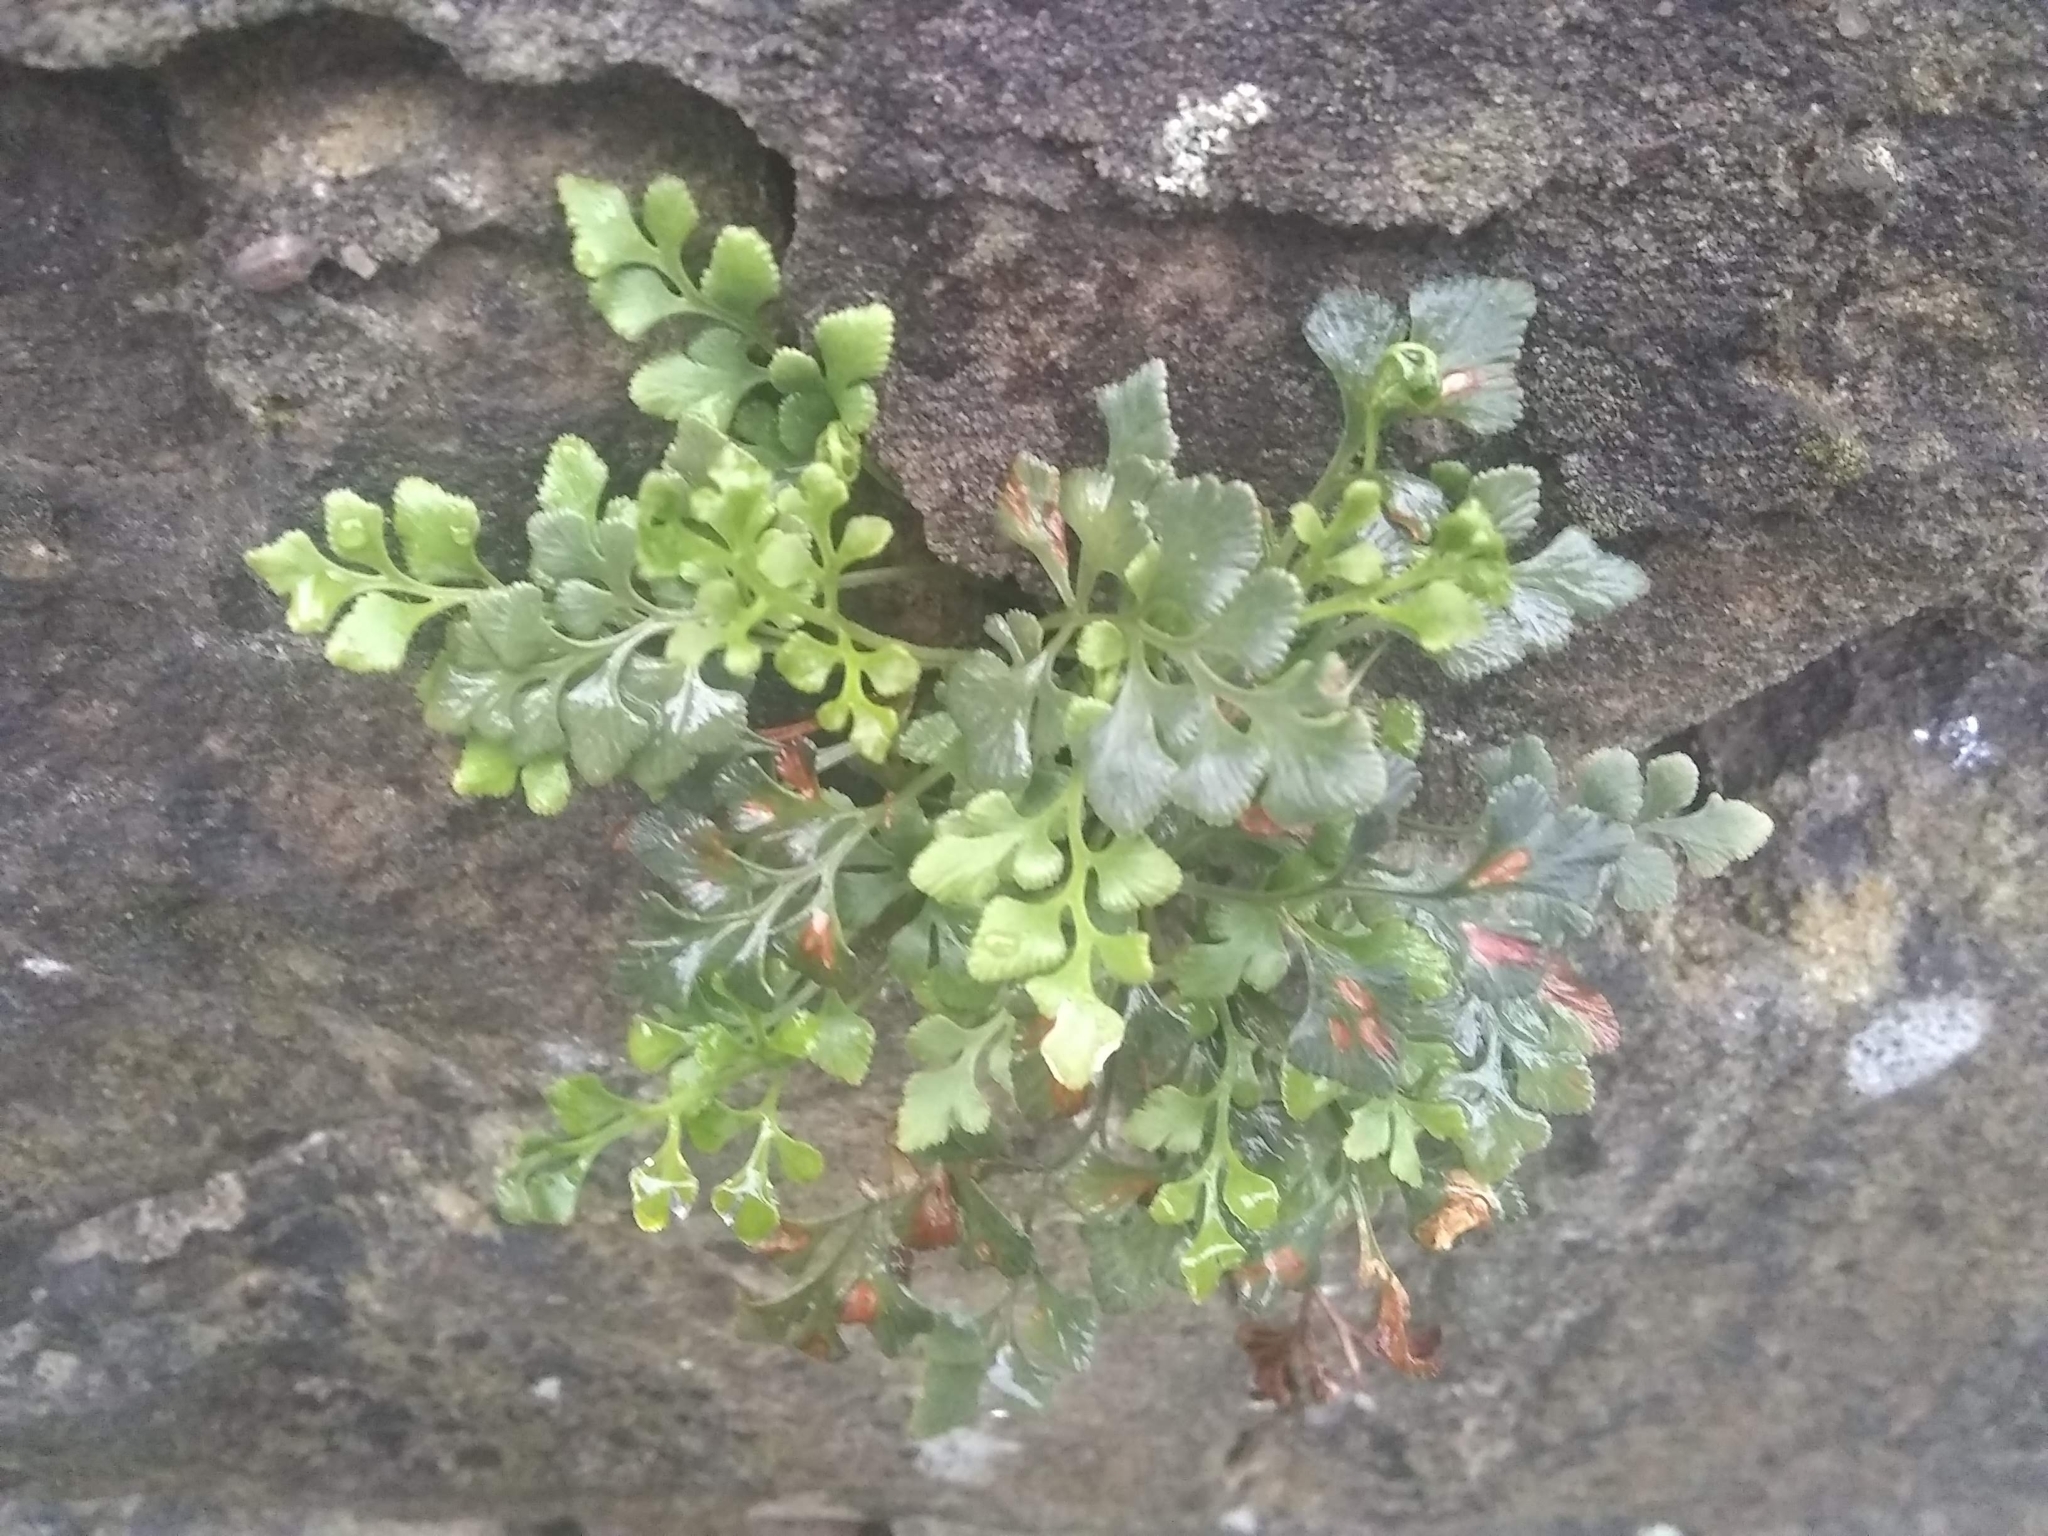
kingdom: Plantae
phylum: Tracheophyta
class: Polypodiopsida
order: Polypodiales
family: Aspleniaceae
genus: Asplenium
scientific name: Asplenium ruta-muraria
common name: Wall-rue
